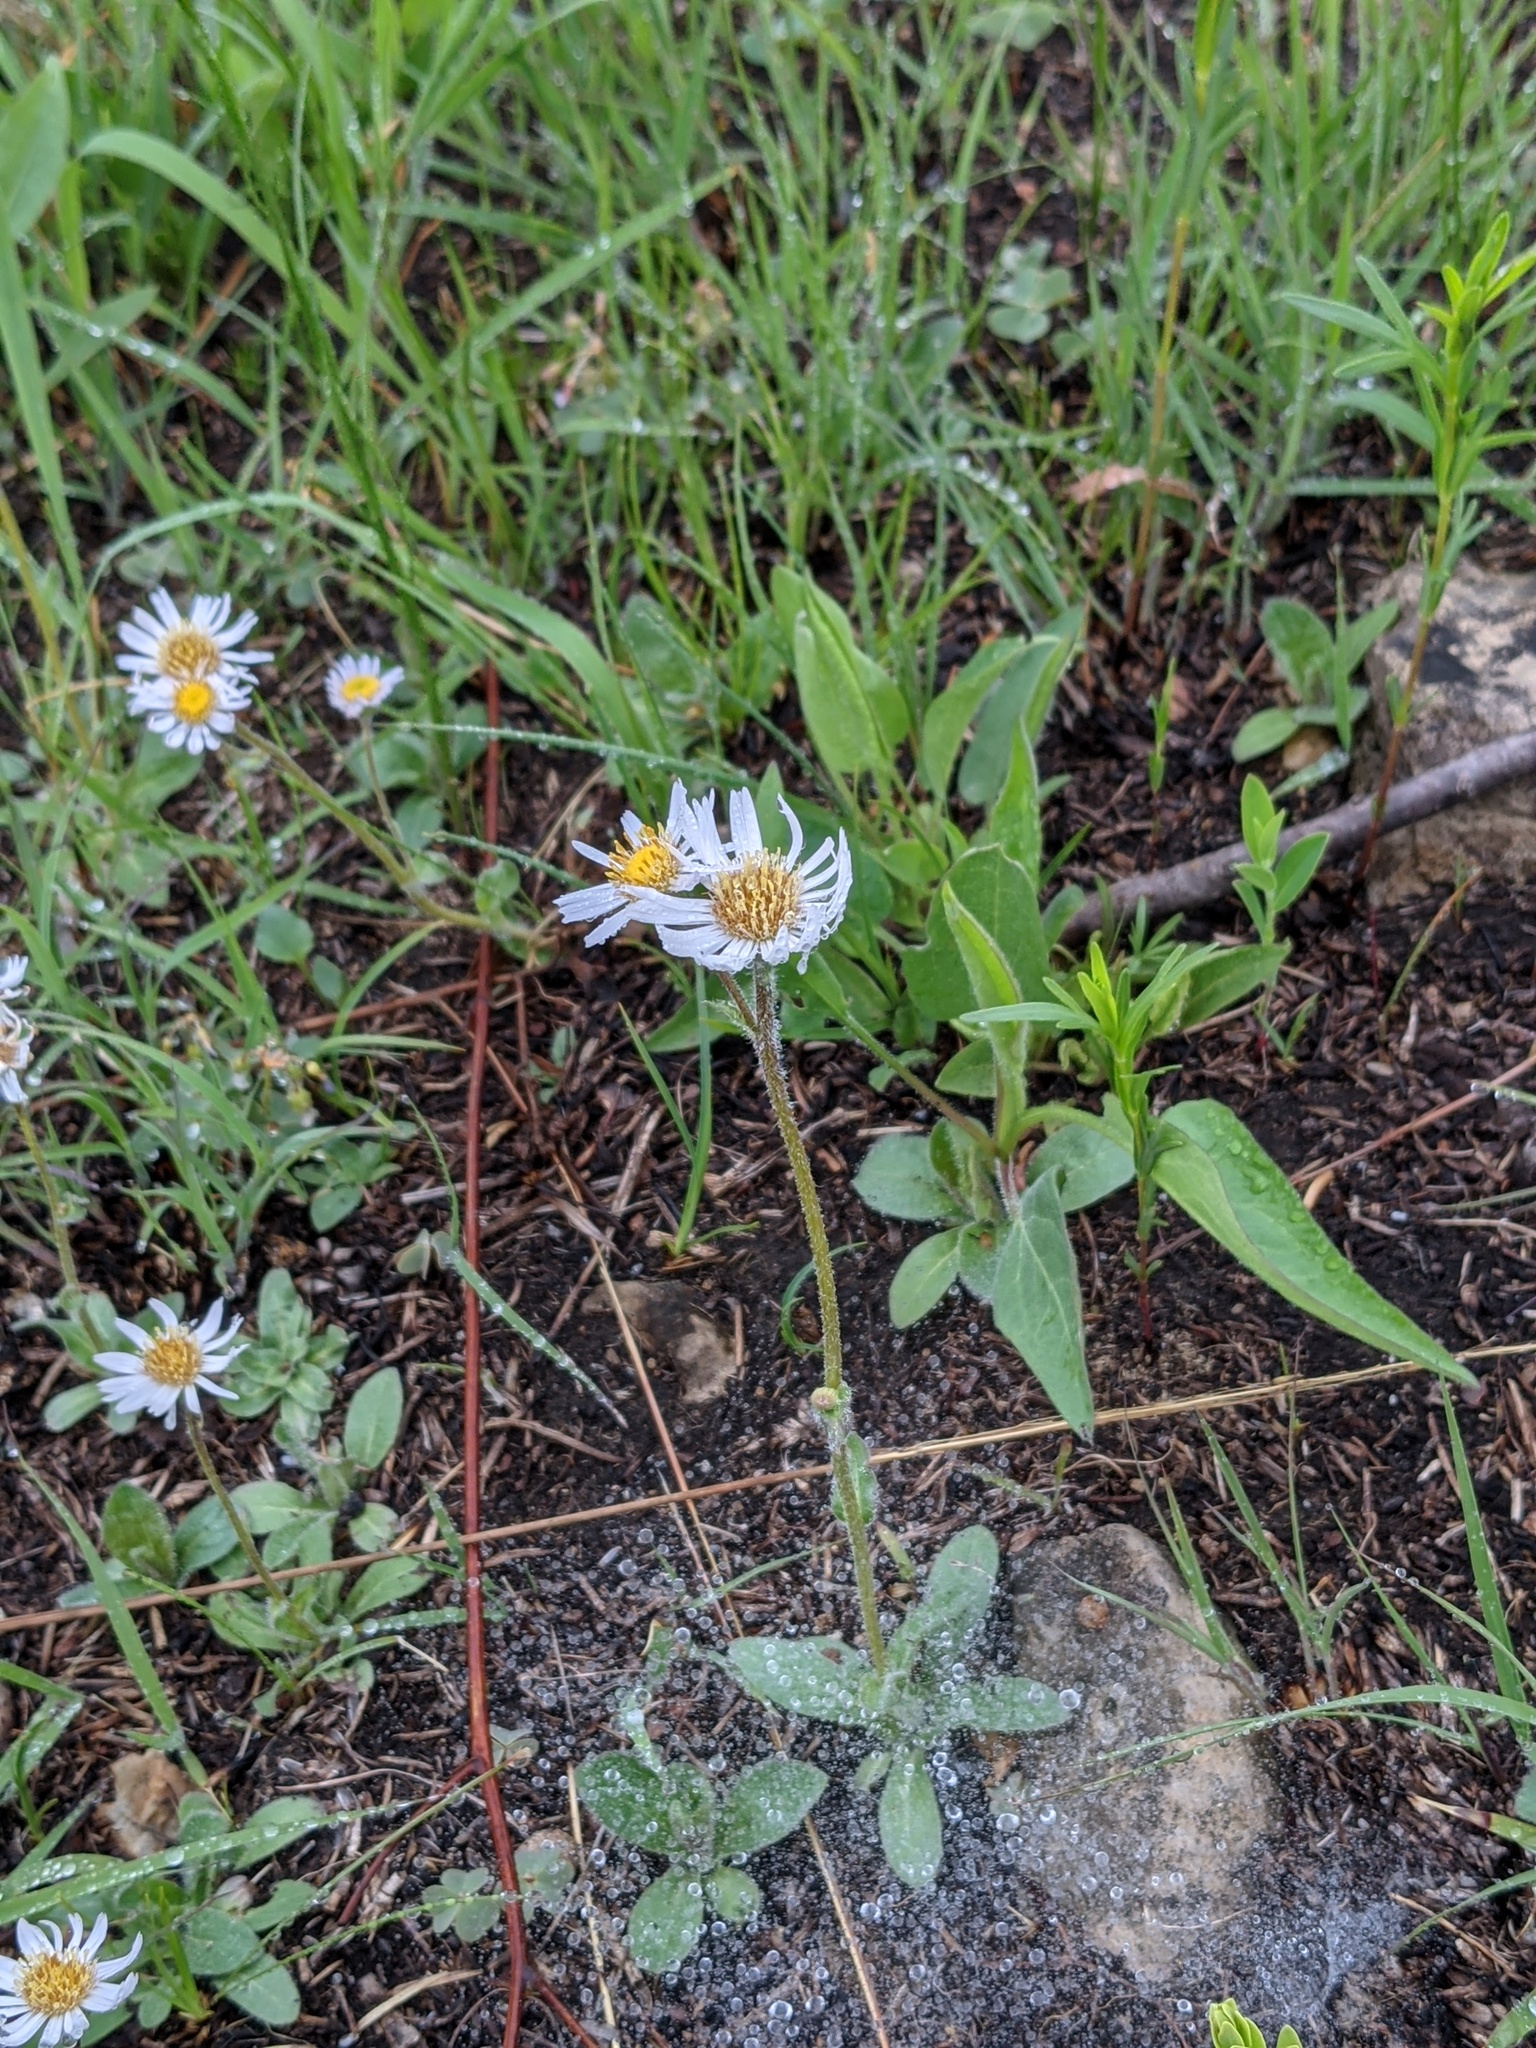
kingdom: Plantae
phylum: Tracheophyta
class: Magnoliopsida
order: Asterales
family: Asteraceae
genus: Erigeron
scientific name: Erigeron pulchellus
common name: Hairy fleabane
